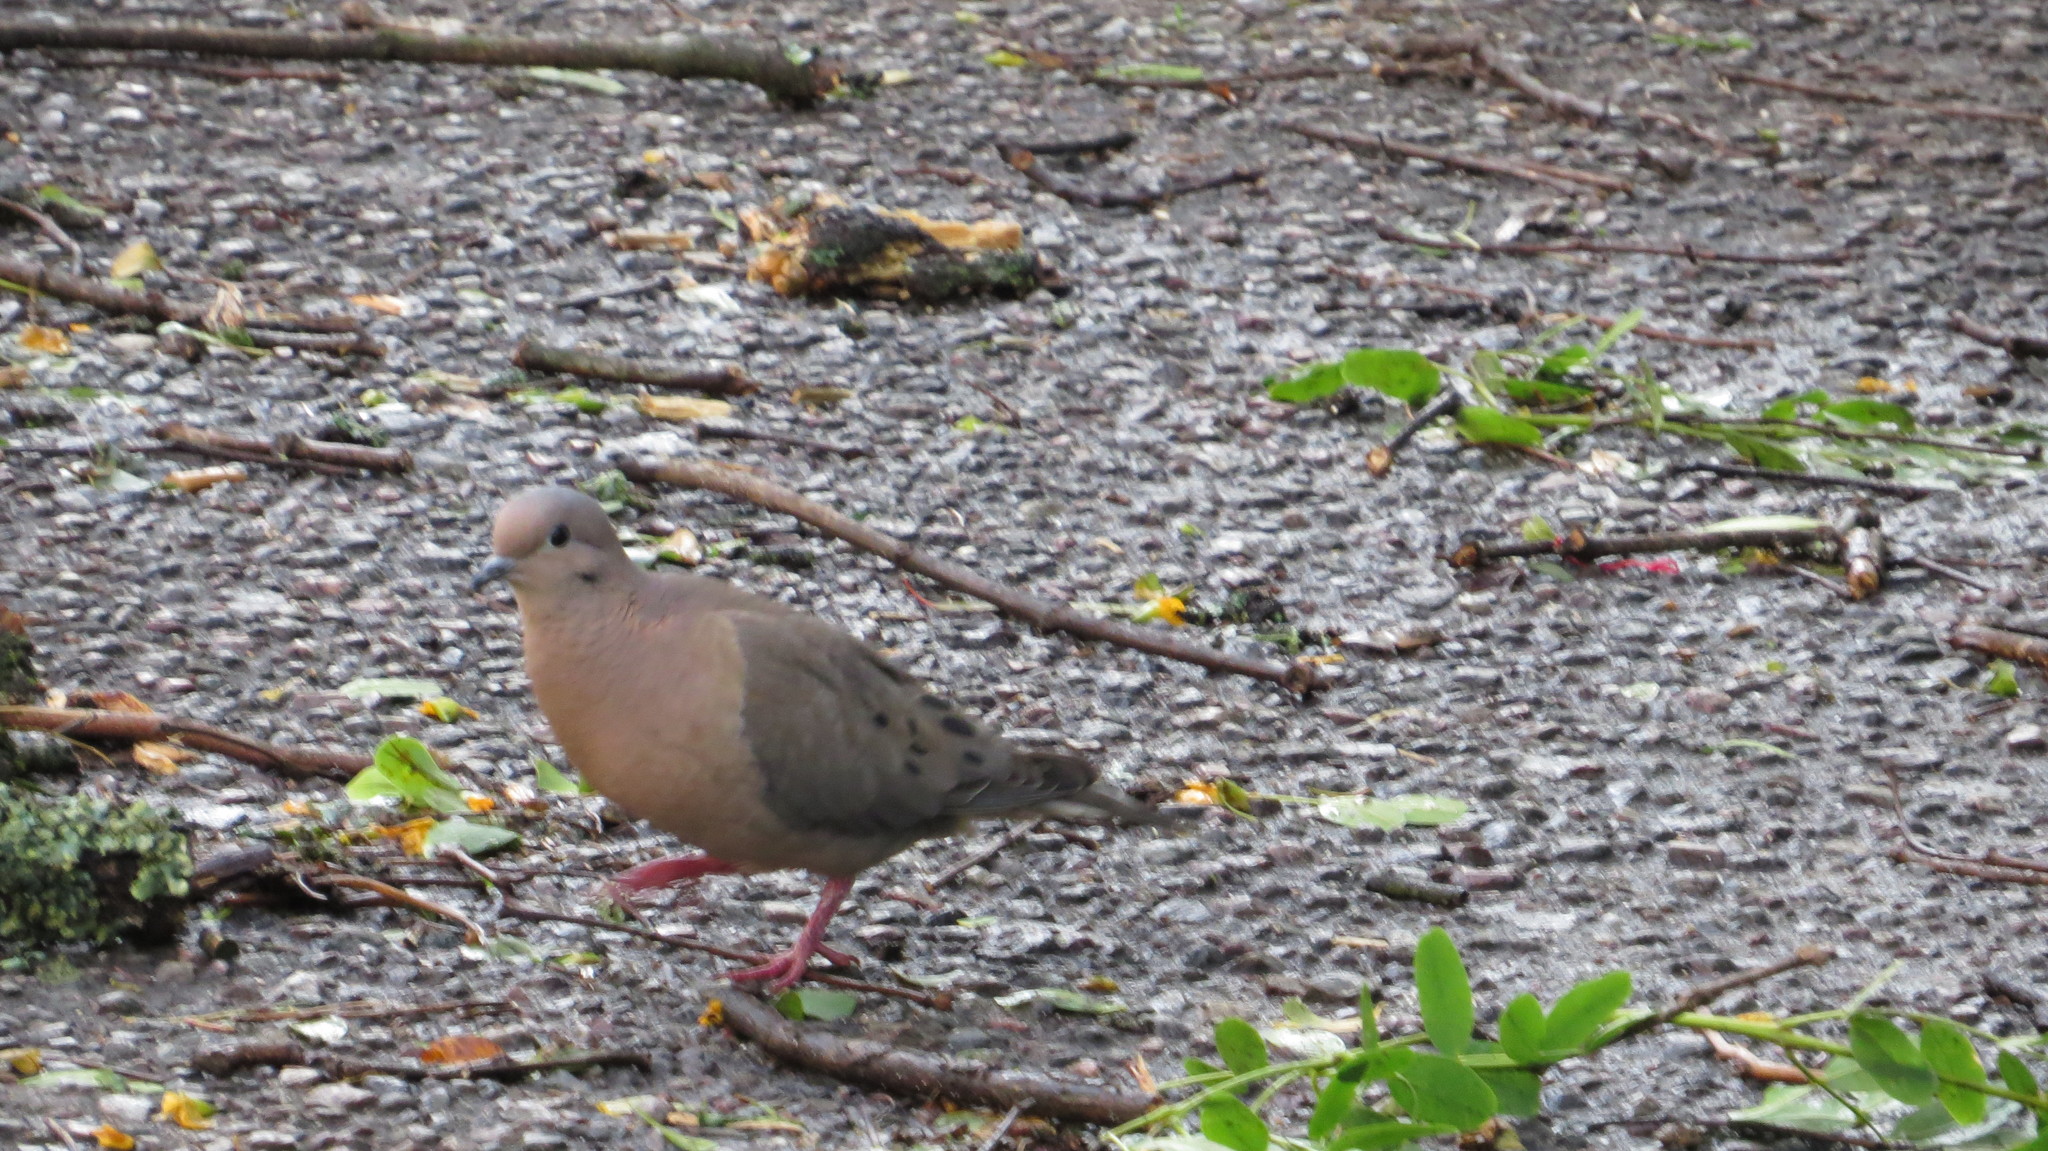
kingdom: Animalia
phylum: Chordata
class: Aves
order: Columbiformes
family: Columbidae
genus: Zenaida
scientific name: Zenaida auriculata
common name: Eared dove
